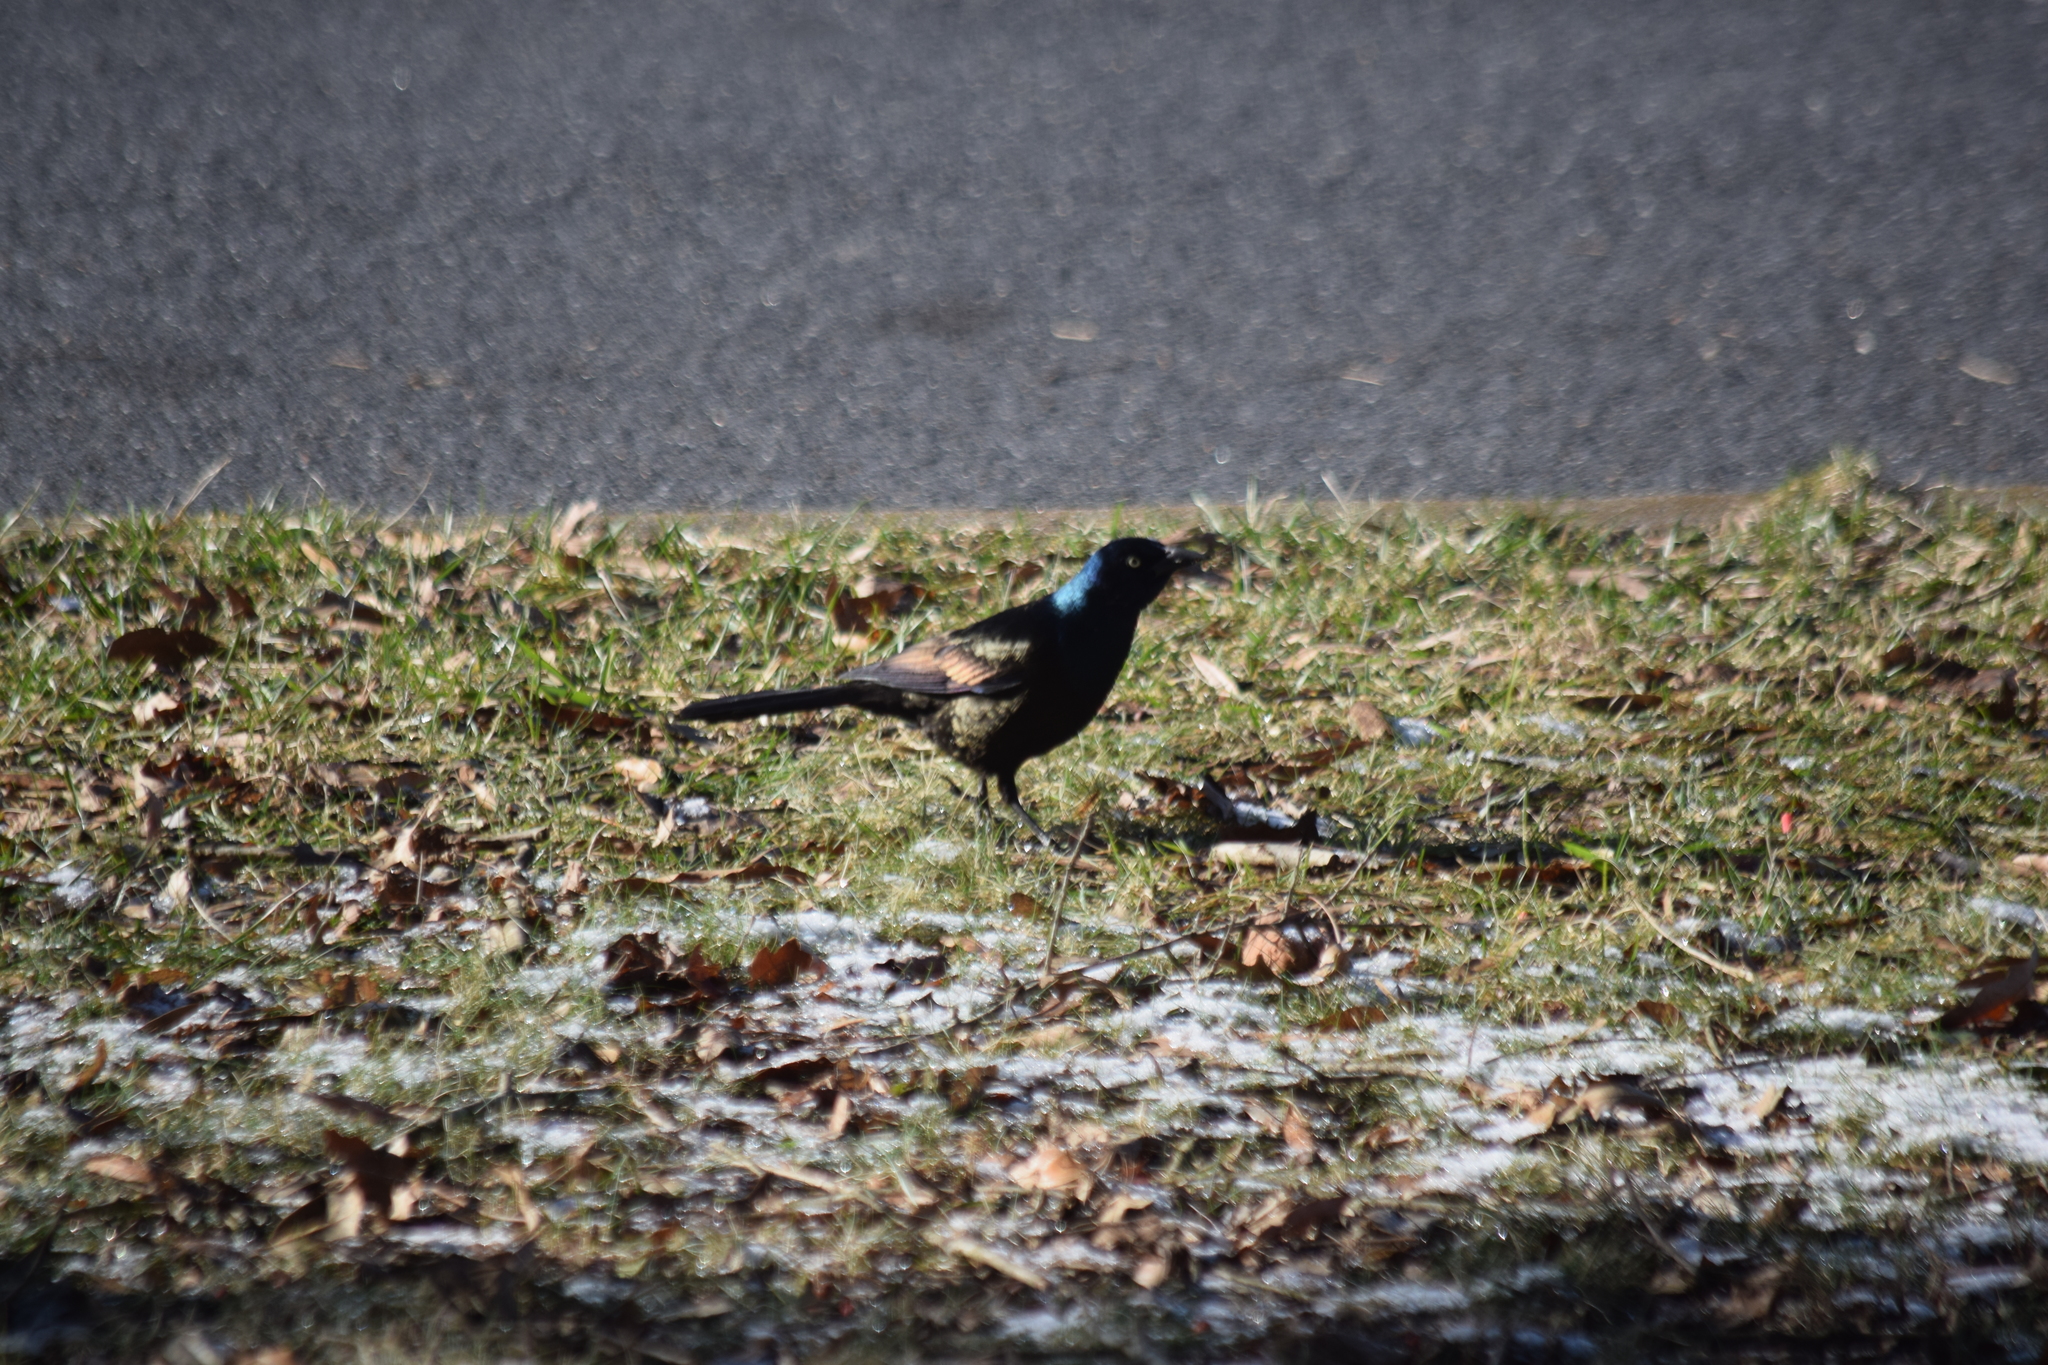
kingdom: Animalia
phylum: Chordata
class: Aves
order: Passeriformes
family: Icteridae
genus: Quiscalus
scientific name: Quiscalus quiscula
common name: Common grackle
